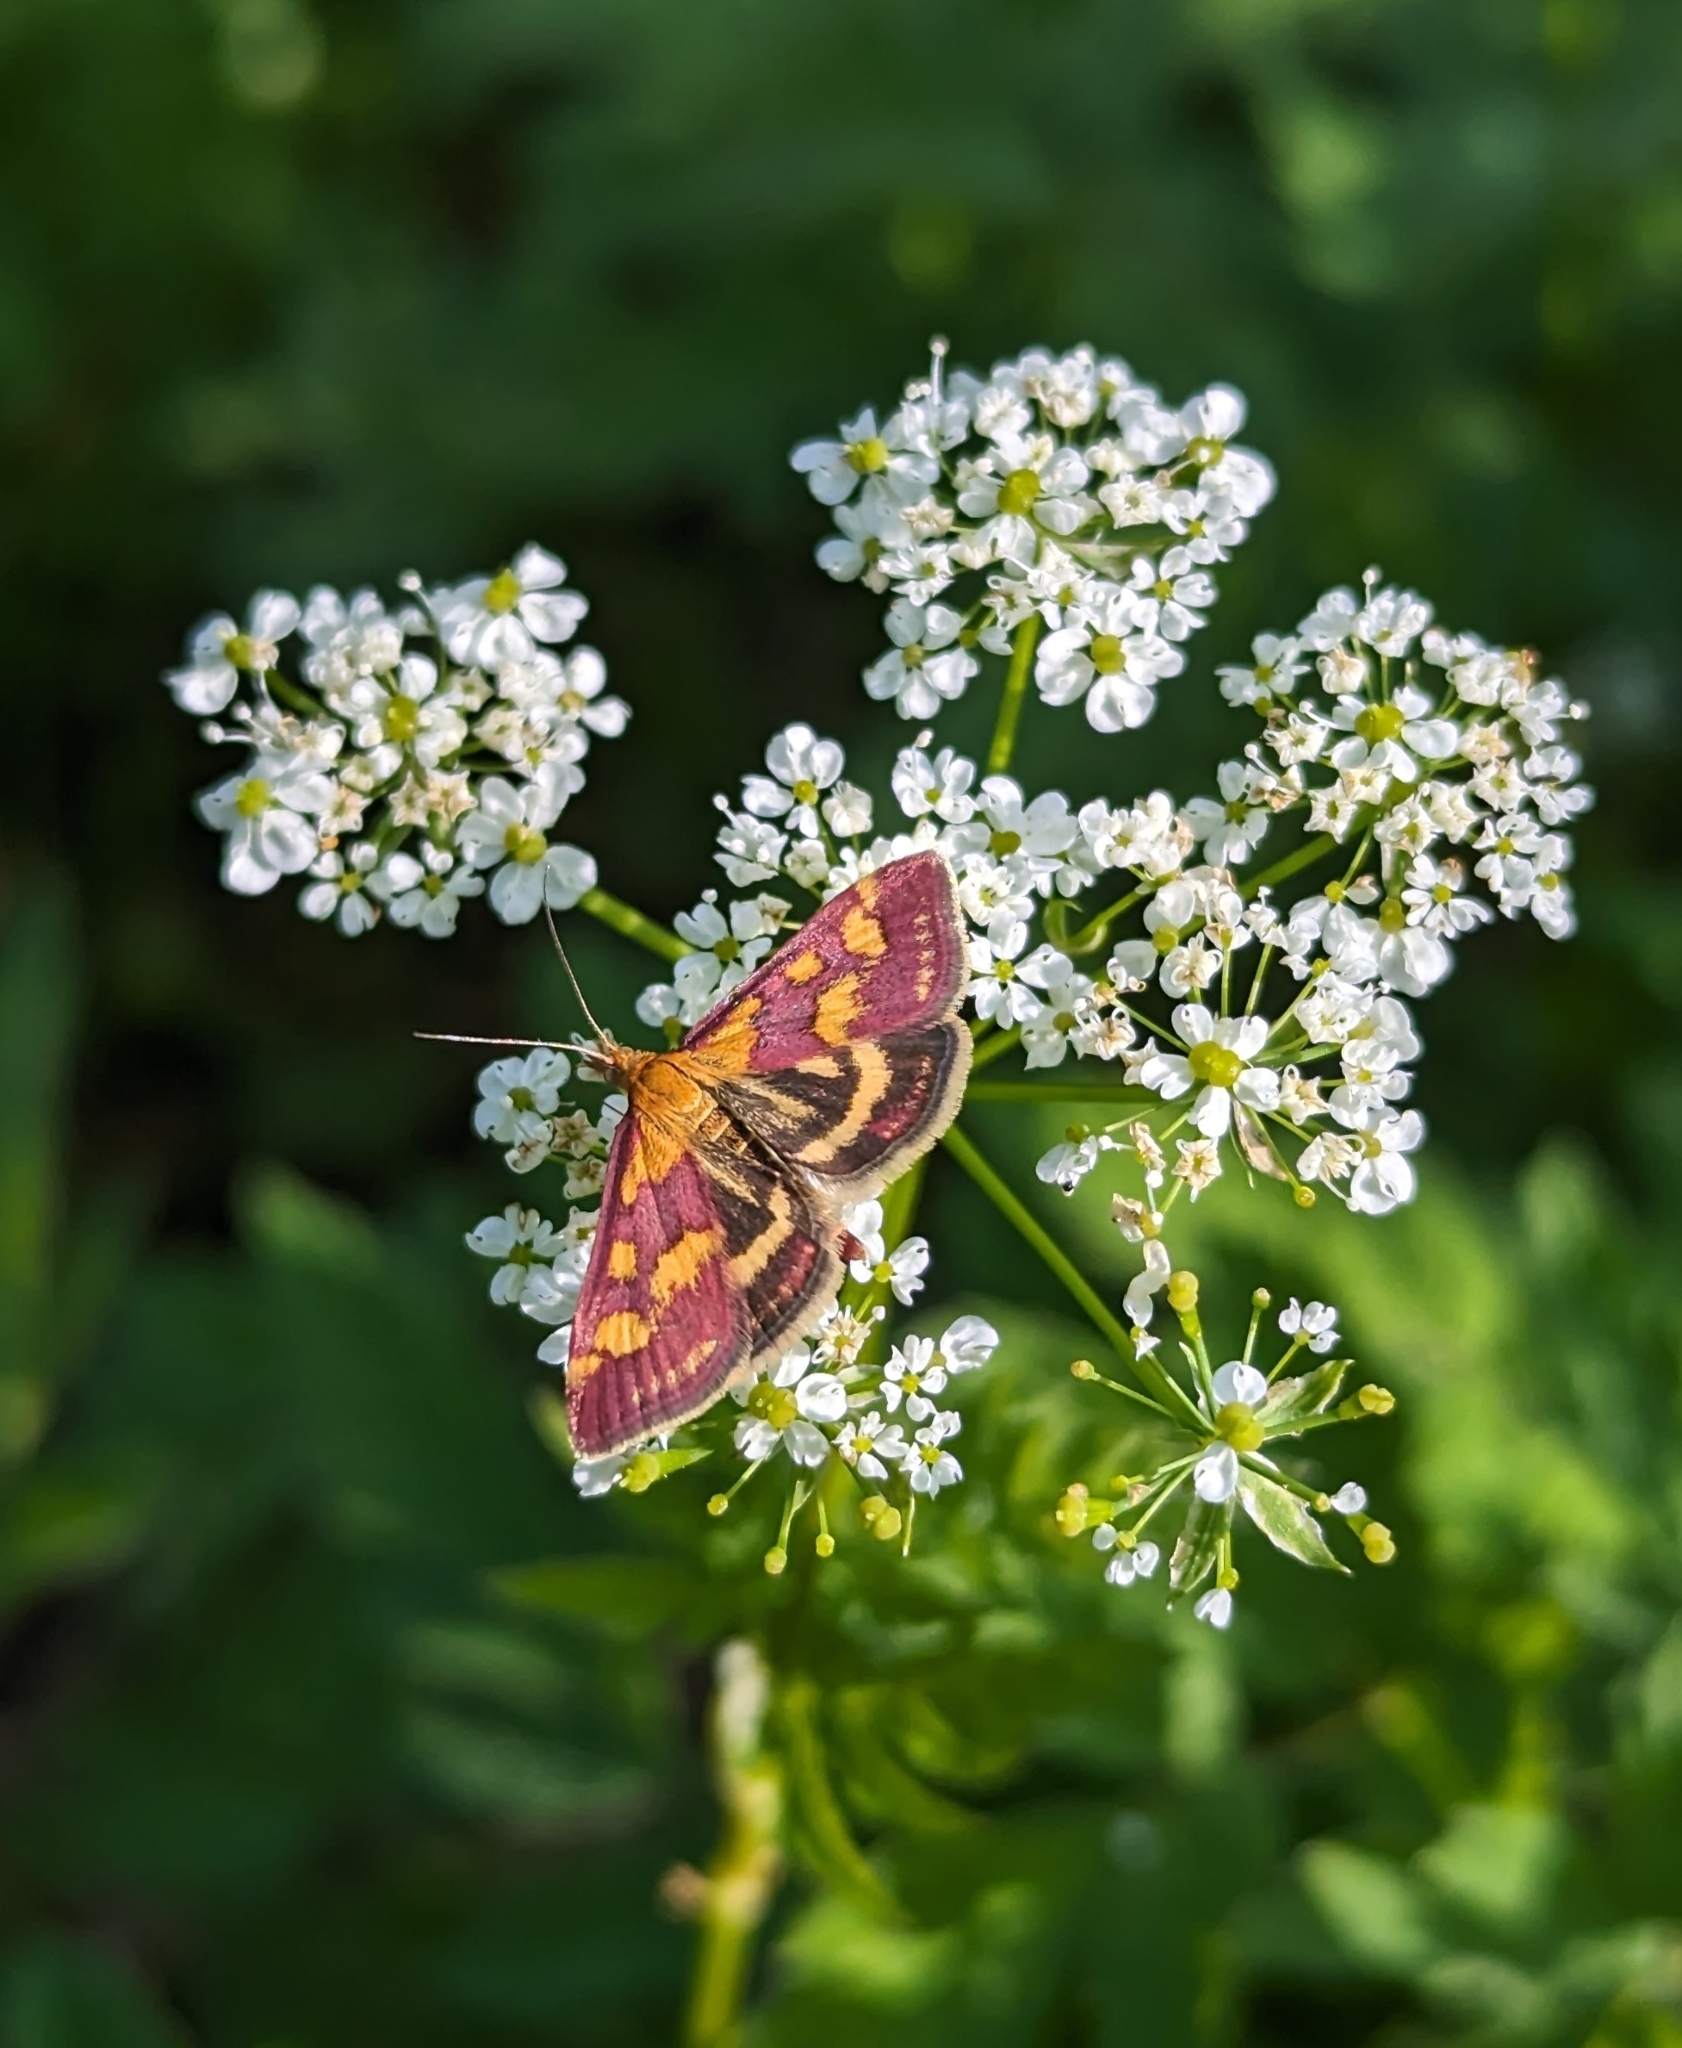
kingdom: Animalia
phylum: Arthropoda
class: Insecta
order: Lepidoptera
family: Crambidae
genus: Pyrausta
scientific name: Pyrausta purpuralis
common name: Common purple & gold
